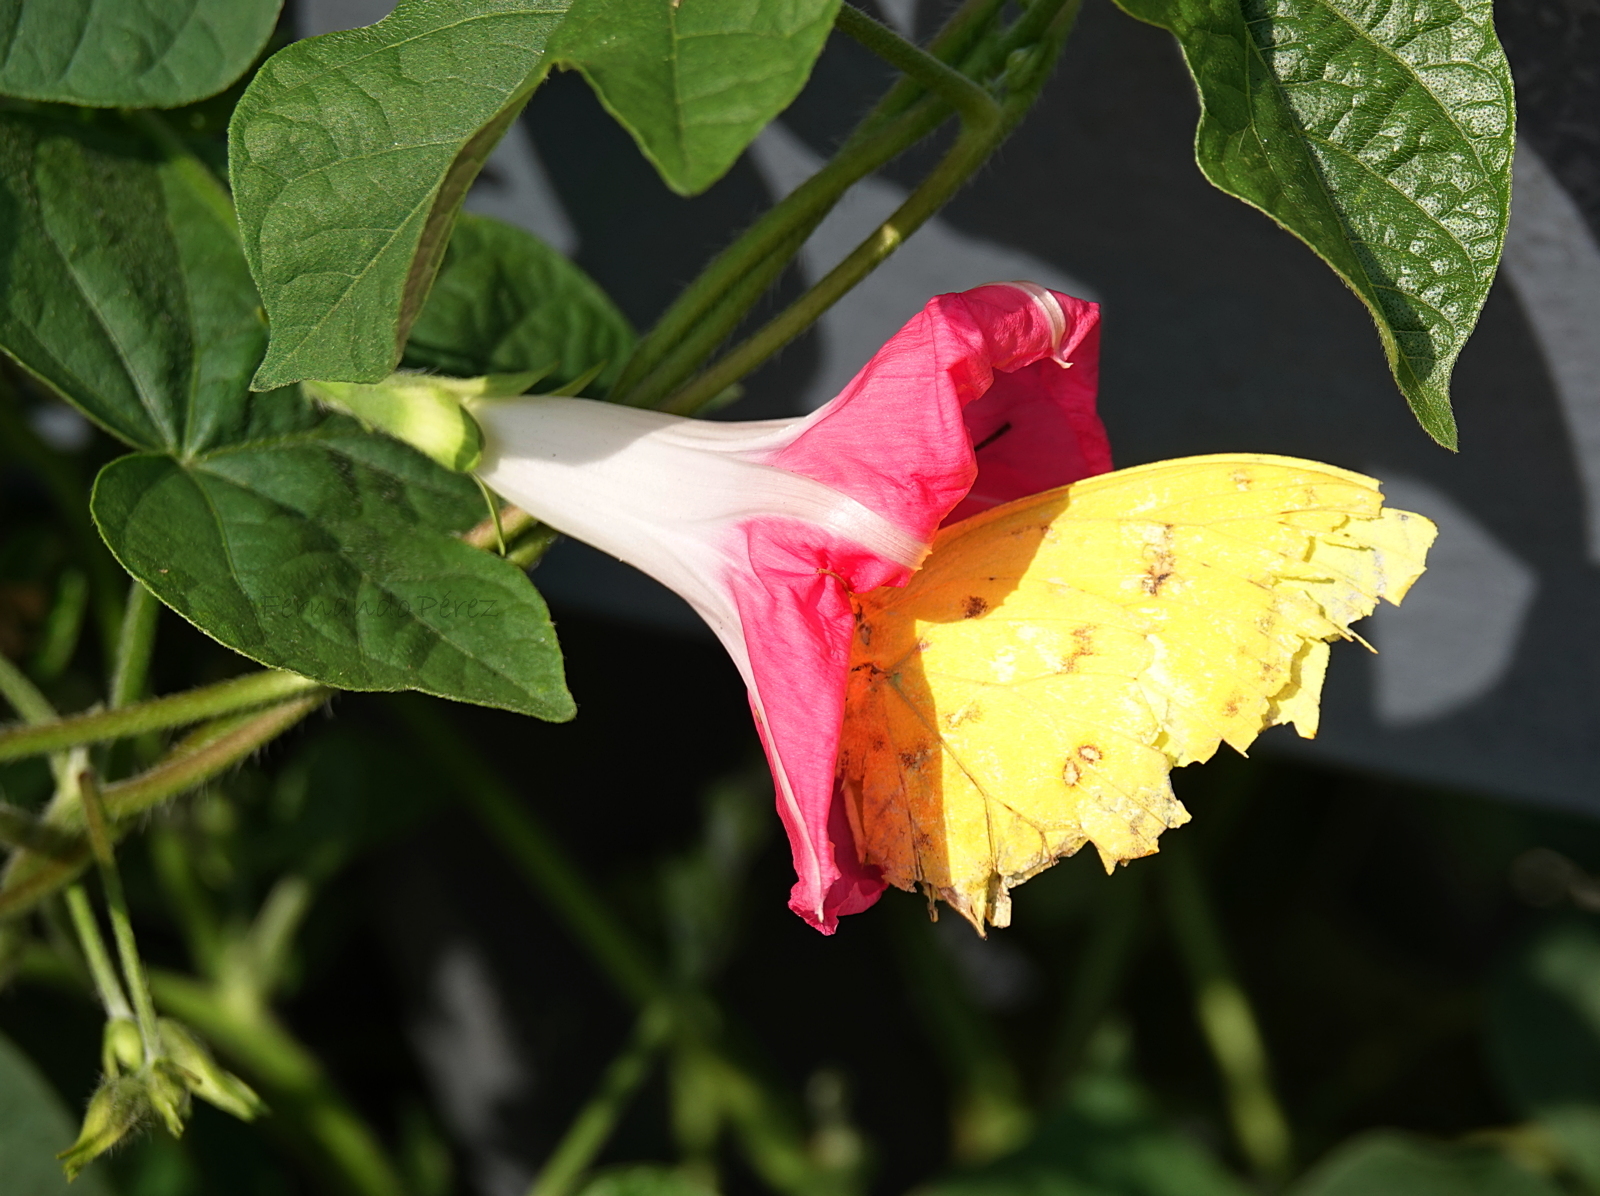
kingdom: Animalia
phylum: Arthropoda
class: Insecta
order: Lepidoptera
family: Pieridae
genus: Phoebis
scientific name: Phoebis philea
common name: Orange-barred giant sulphur
